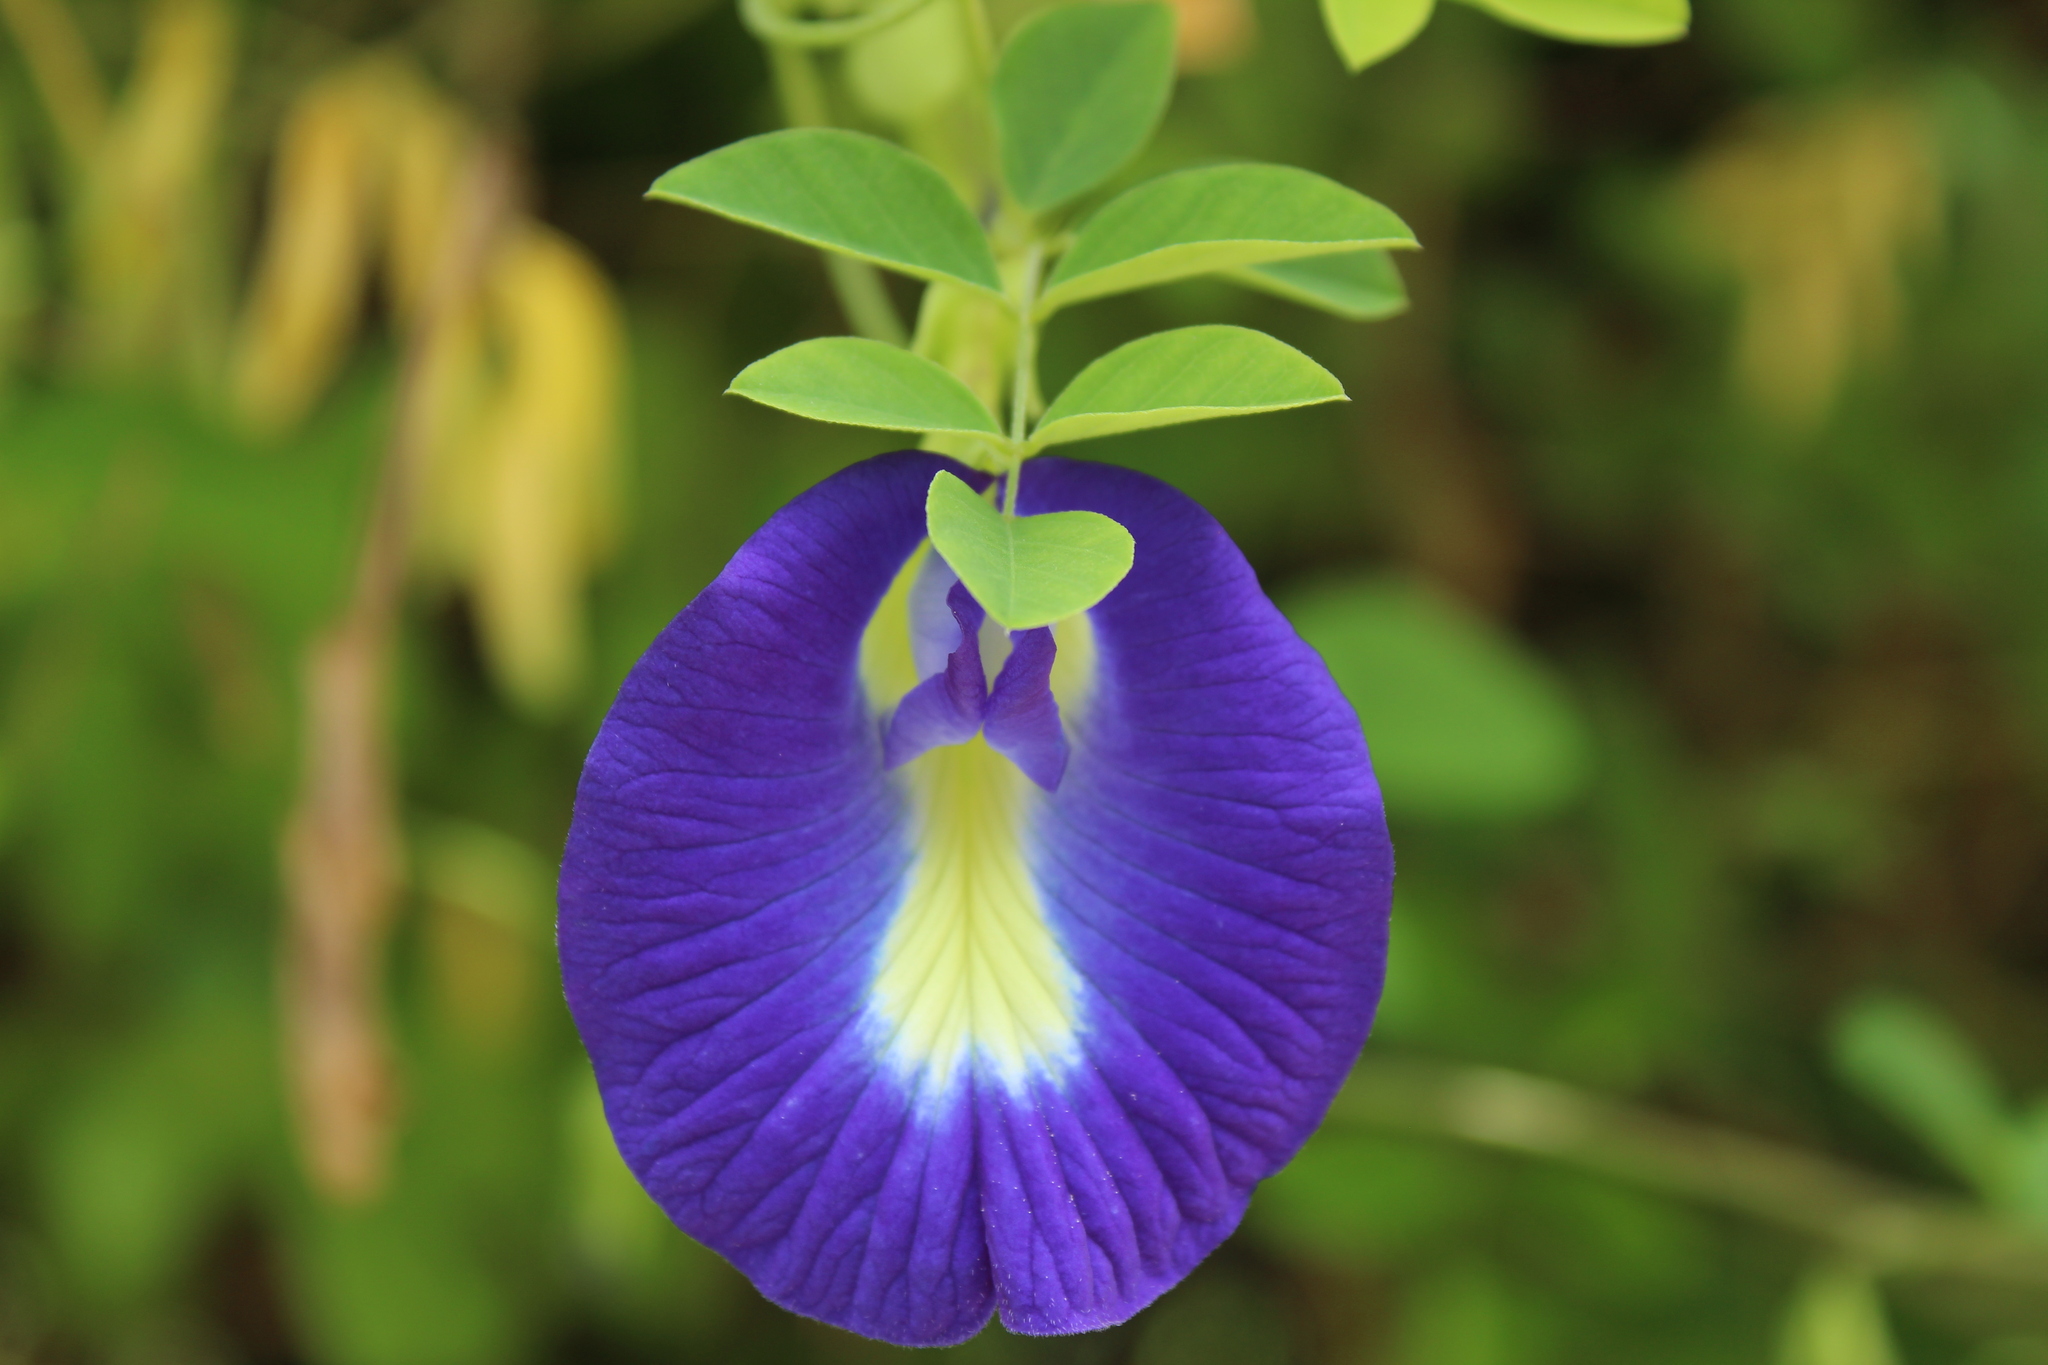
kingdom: Plantae
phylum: Tracheophyta
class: Magnoliopsida
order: Fabales
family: Fabaceae
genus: Clitoria
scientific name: Clitoria ternatea
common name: Asian pigeonwings
